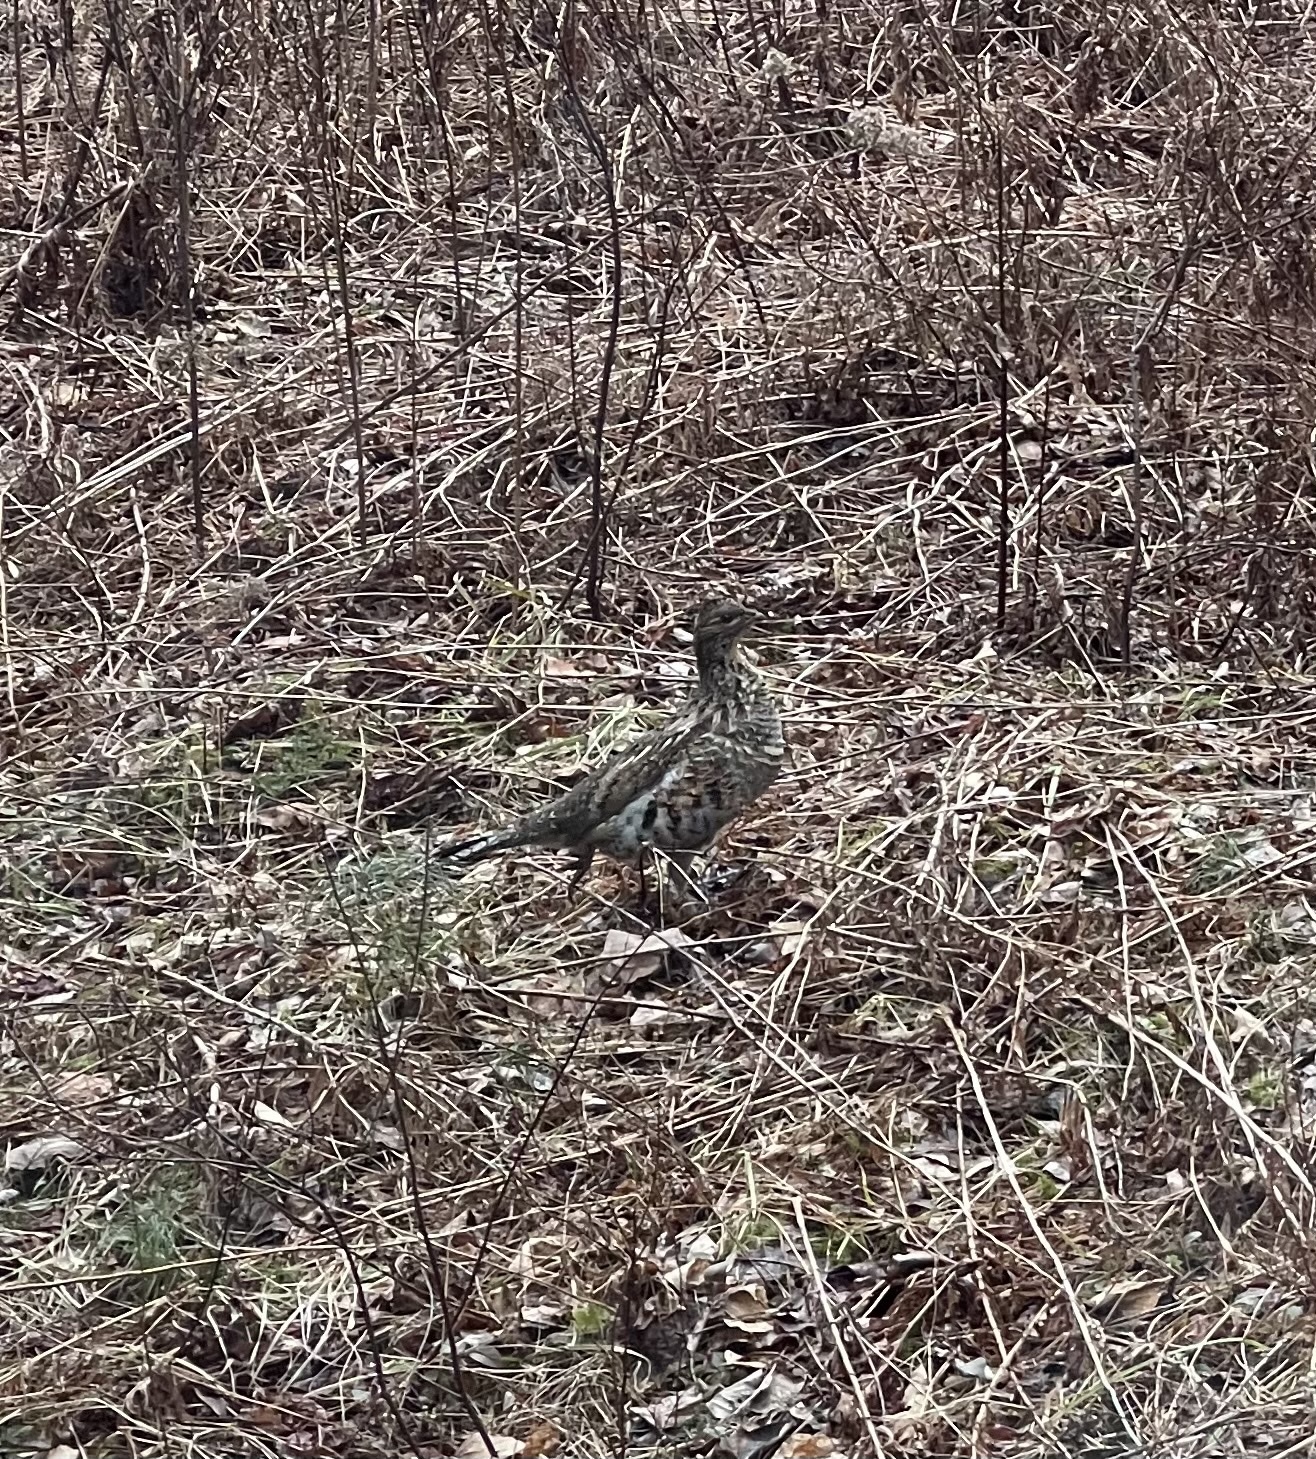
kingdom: Animalia
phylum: Chordata
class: Aves
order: Galliformes
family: Phasianidae
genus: Bonasa
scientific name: Bonasa umbellus
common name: Ruffed grouse
